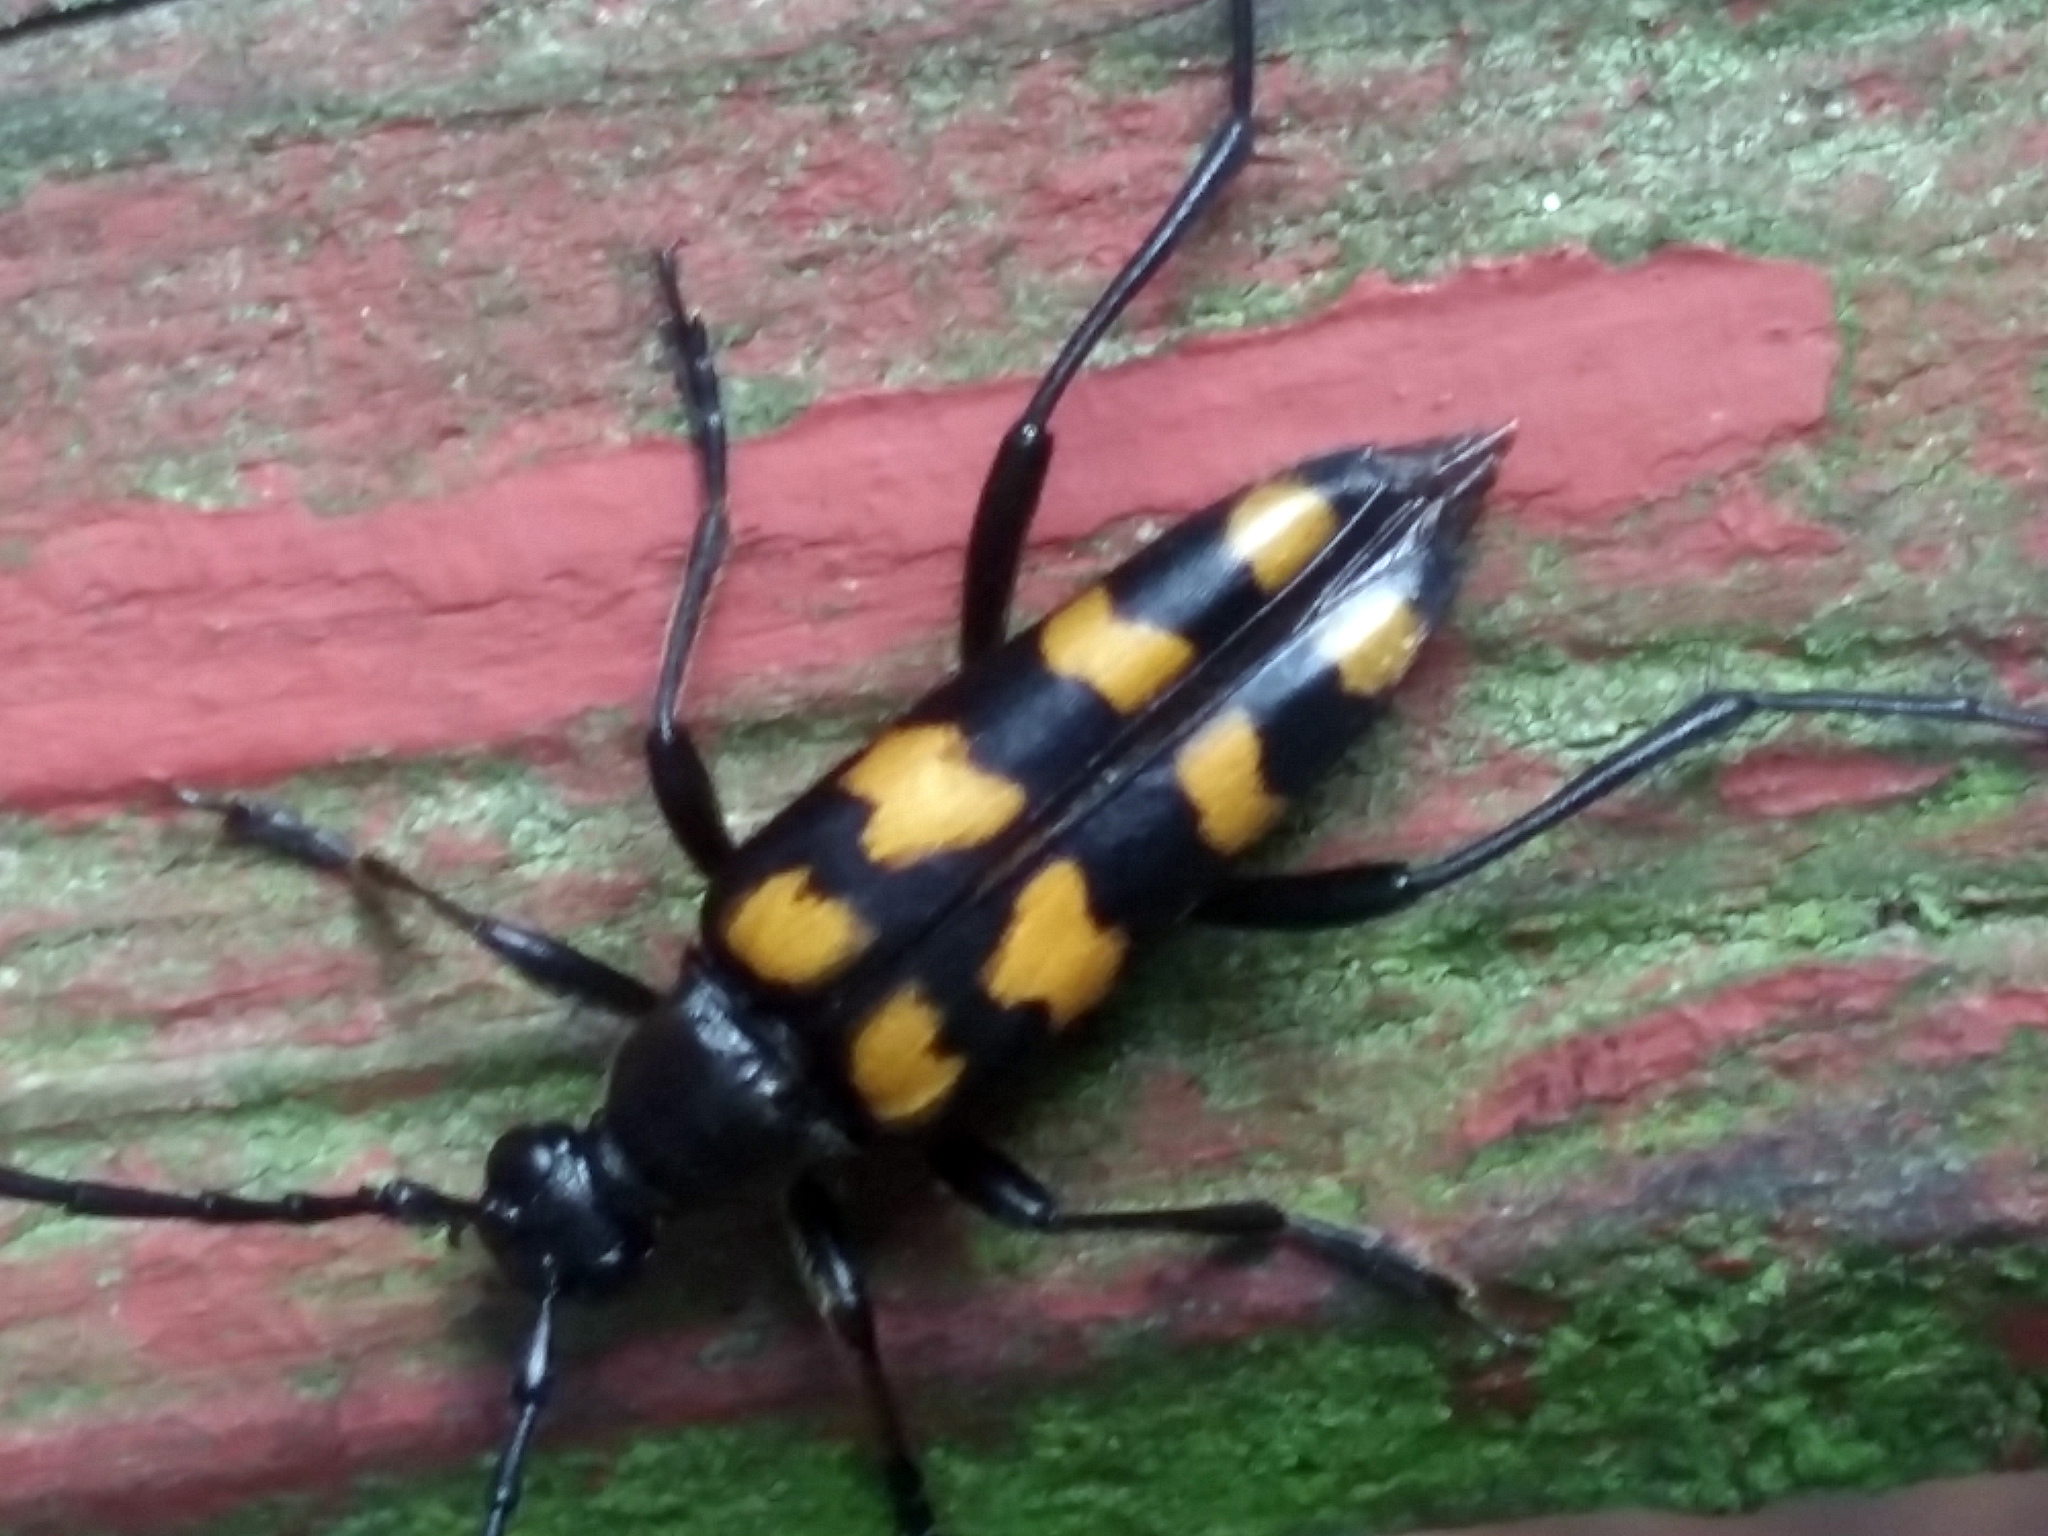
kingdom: Animalia
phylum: Arthropoda
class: Insecta
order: Coleoptera
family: Cerambycidae
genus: Leptura
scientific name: Leptura quadrifasciata
